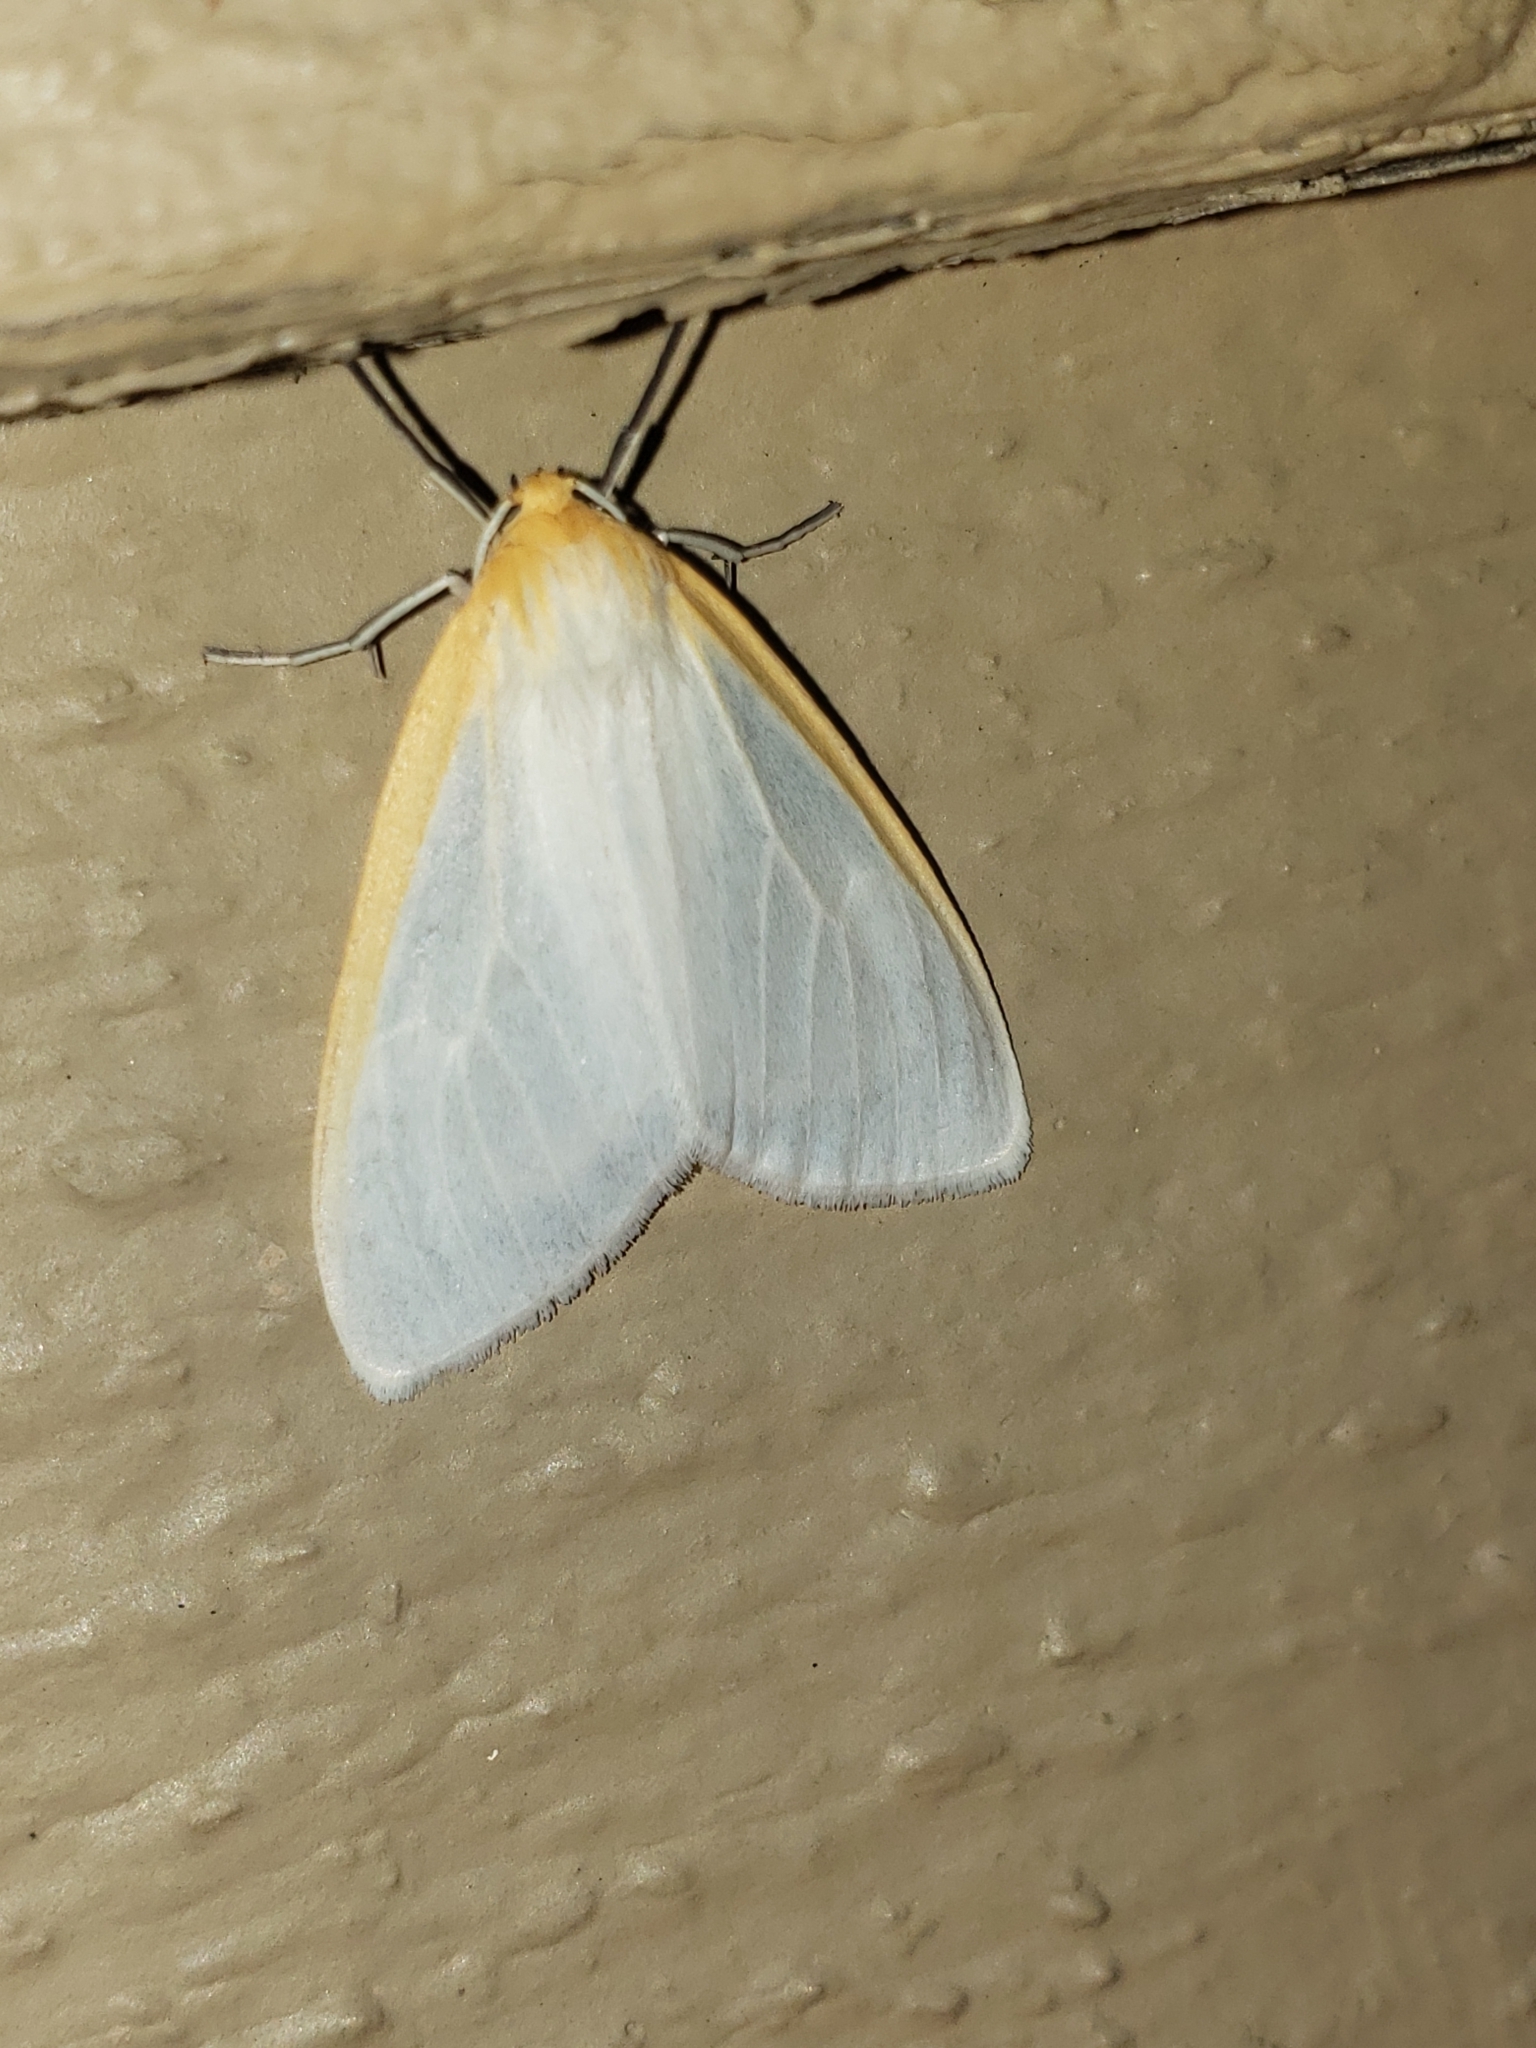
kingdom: Animalia
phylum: Arthropoda
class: Insecta
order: Lepidoptera
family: Erebidae
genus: Cycnia
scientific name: Cycnia tenera
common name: Delicate cycnia moth
